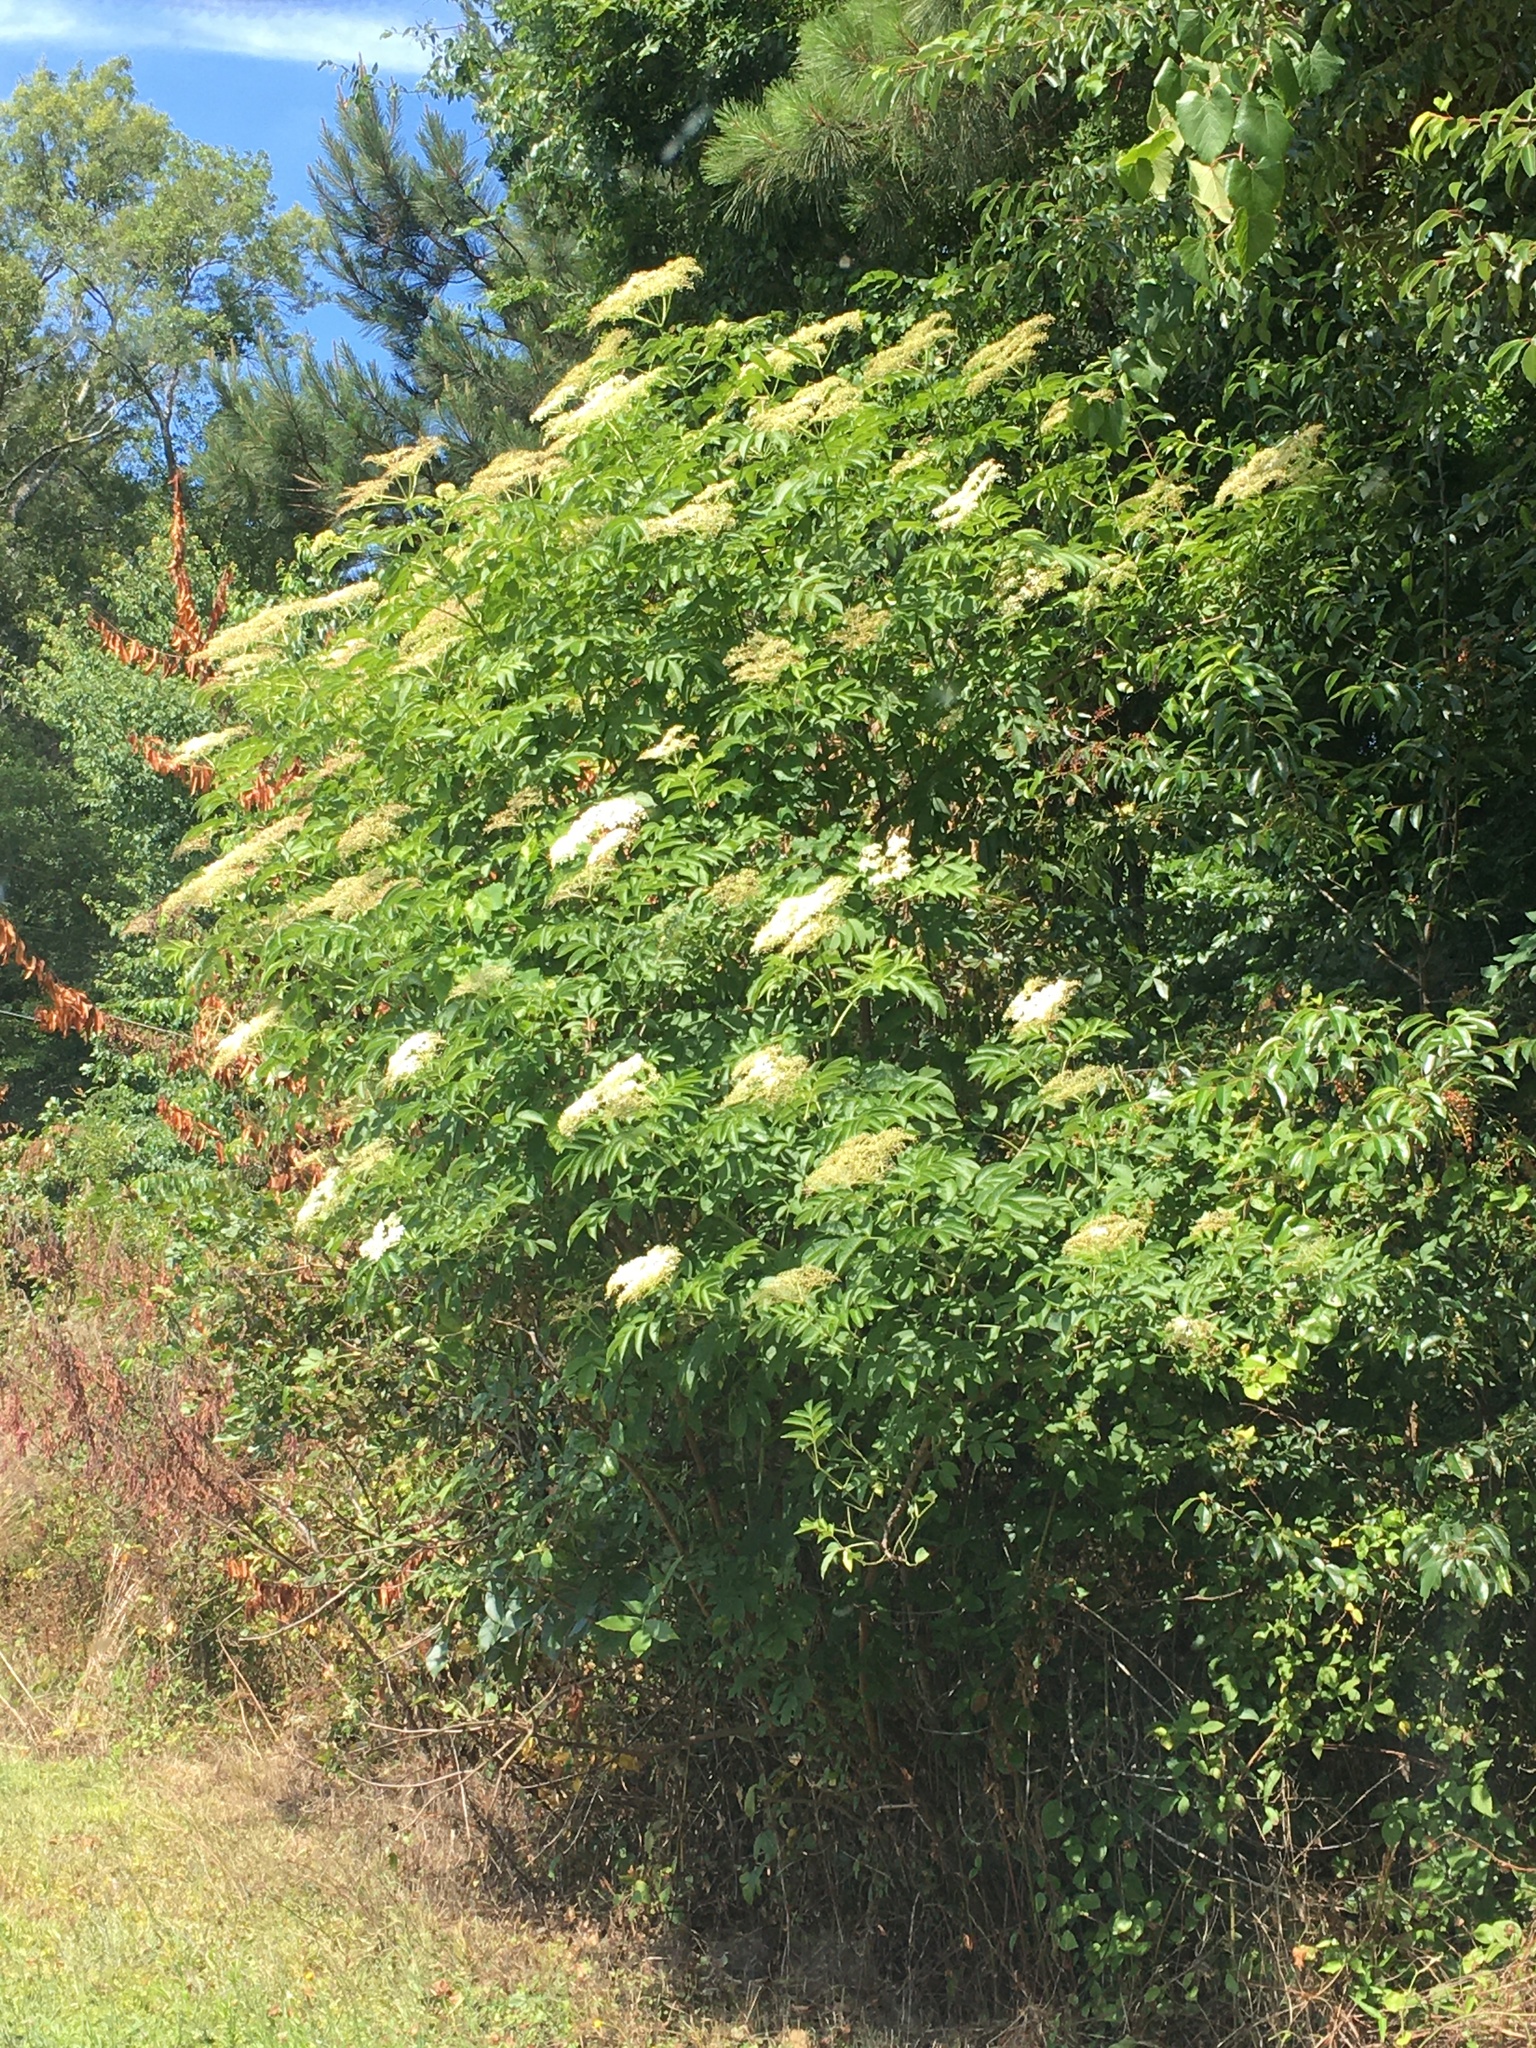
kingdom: Plantae
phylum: Tracheophyta
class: Magnoliopsida
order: Dipsacales
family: Viburnaceae
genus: Sambucus
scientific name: Sambucus canadensis
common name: American elder
